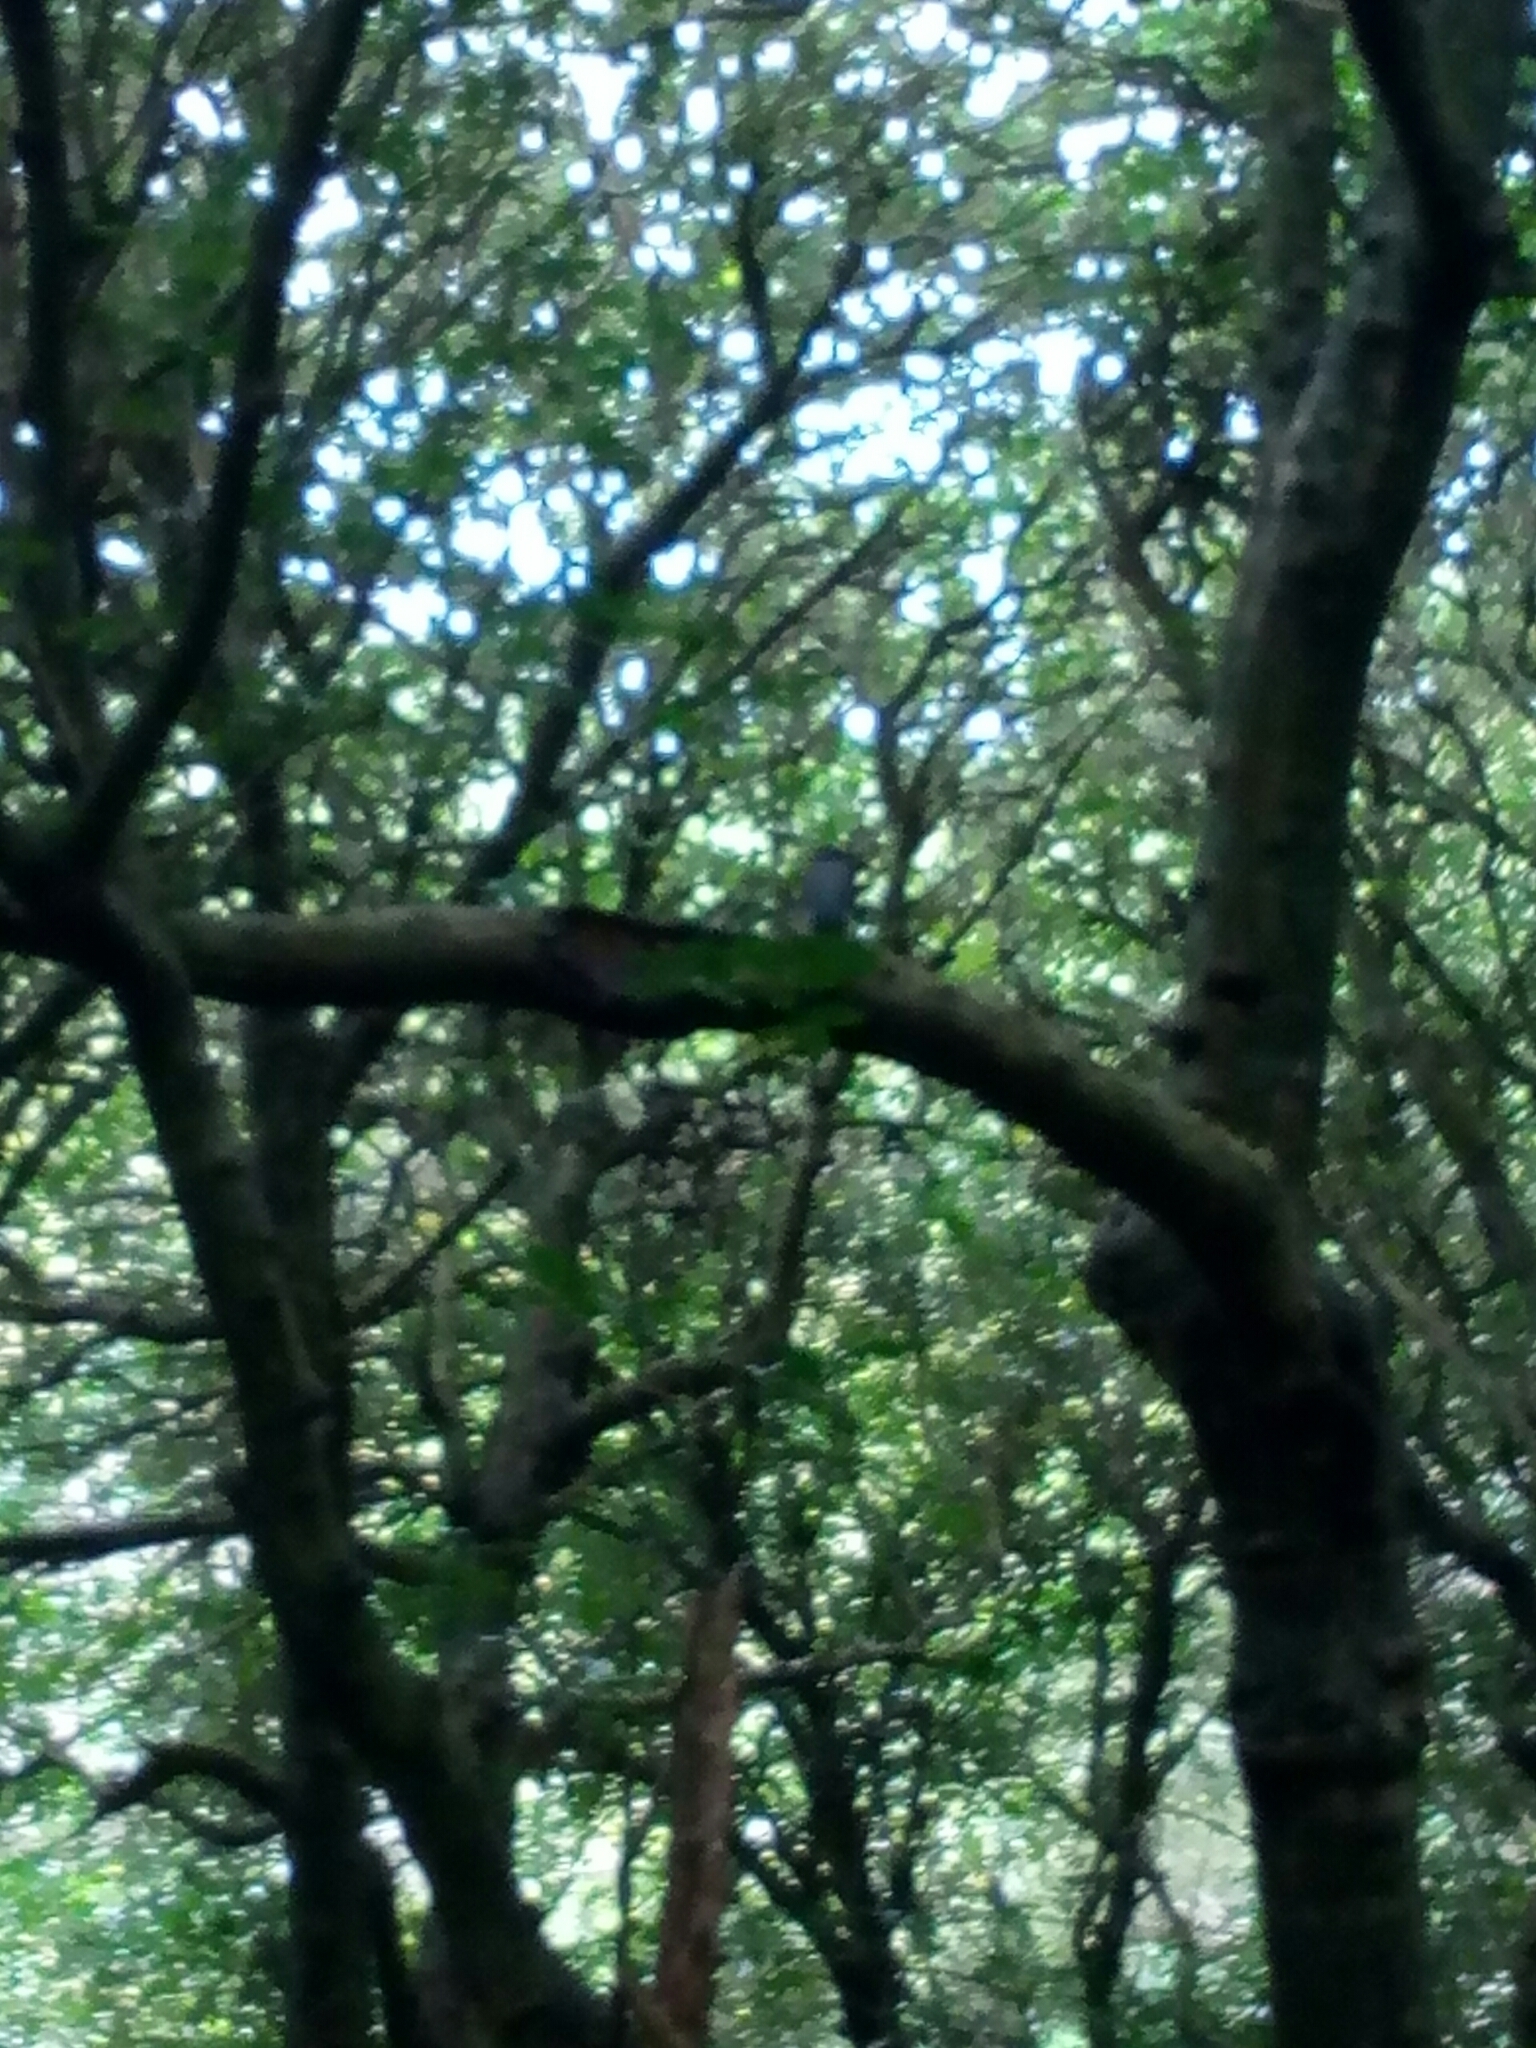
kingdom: Animalia
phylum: Chordata
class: Aves
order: Columbiformes
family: Columbidae
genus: Hemiphaga
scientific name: Hemiphaga novaeseelandiae
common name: New zealand pigeon
